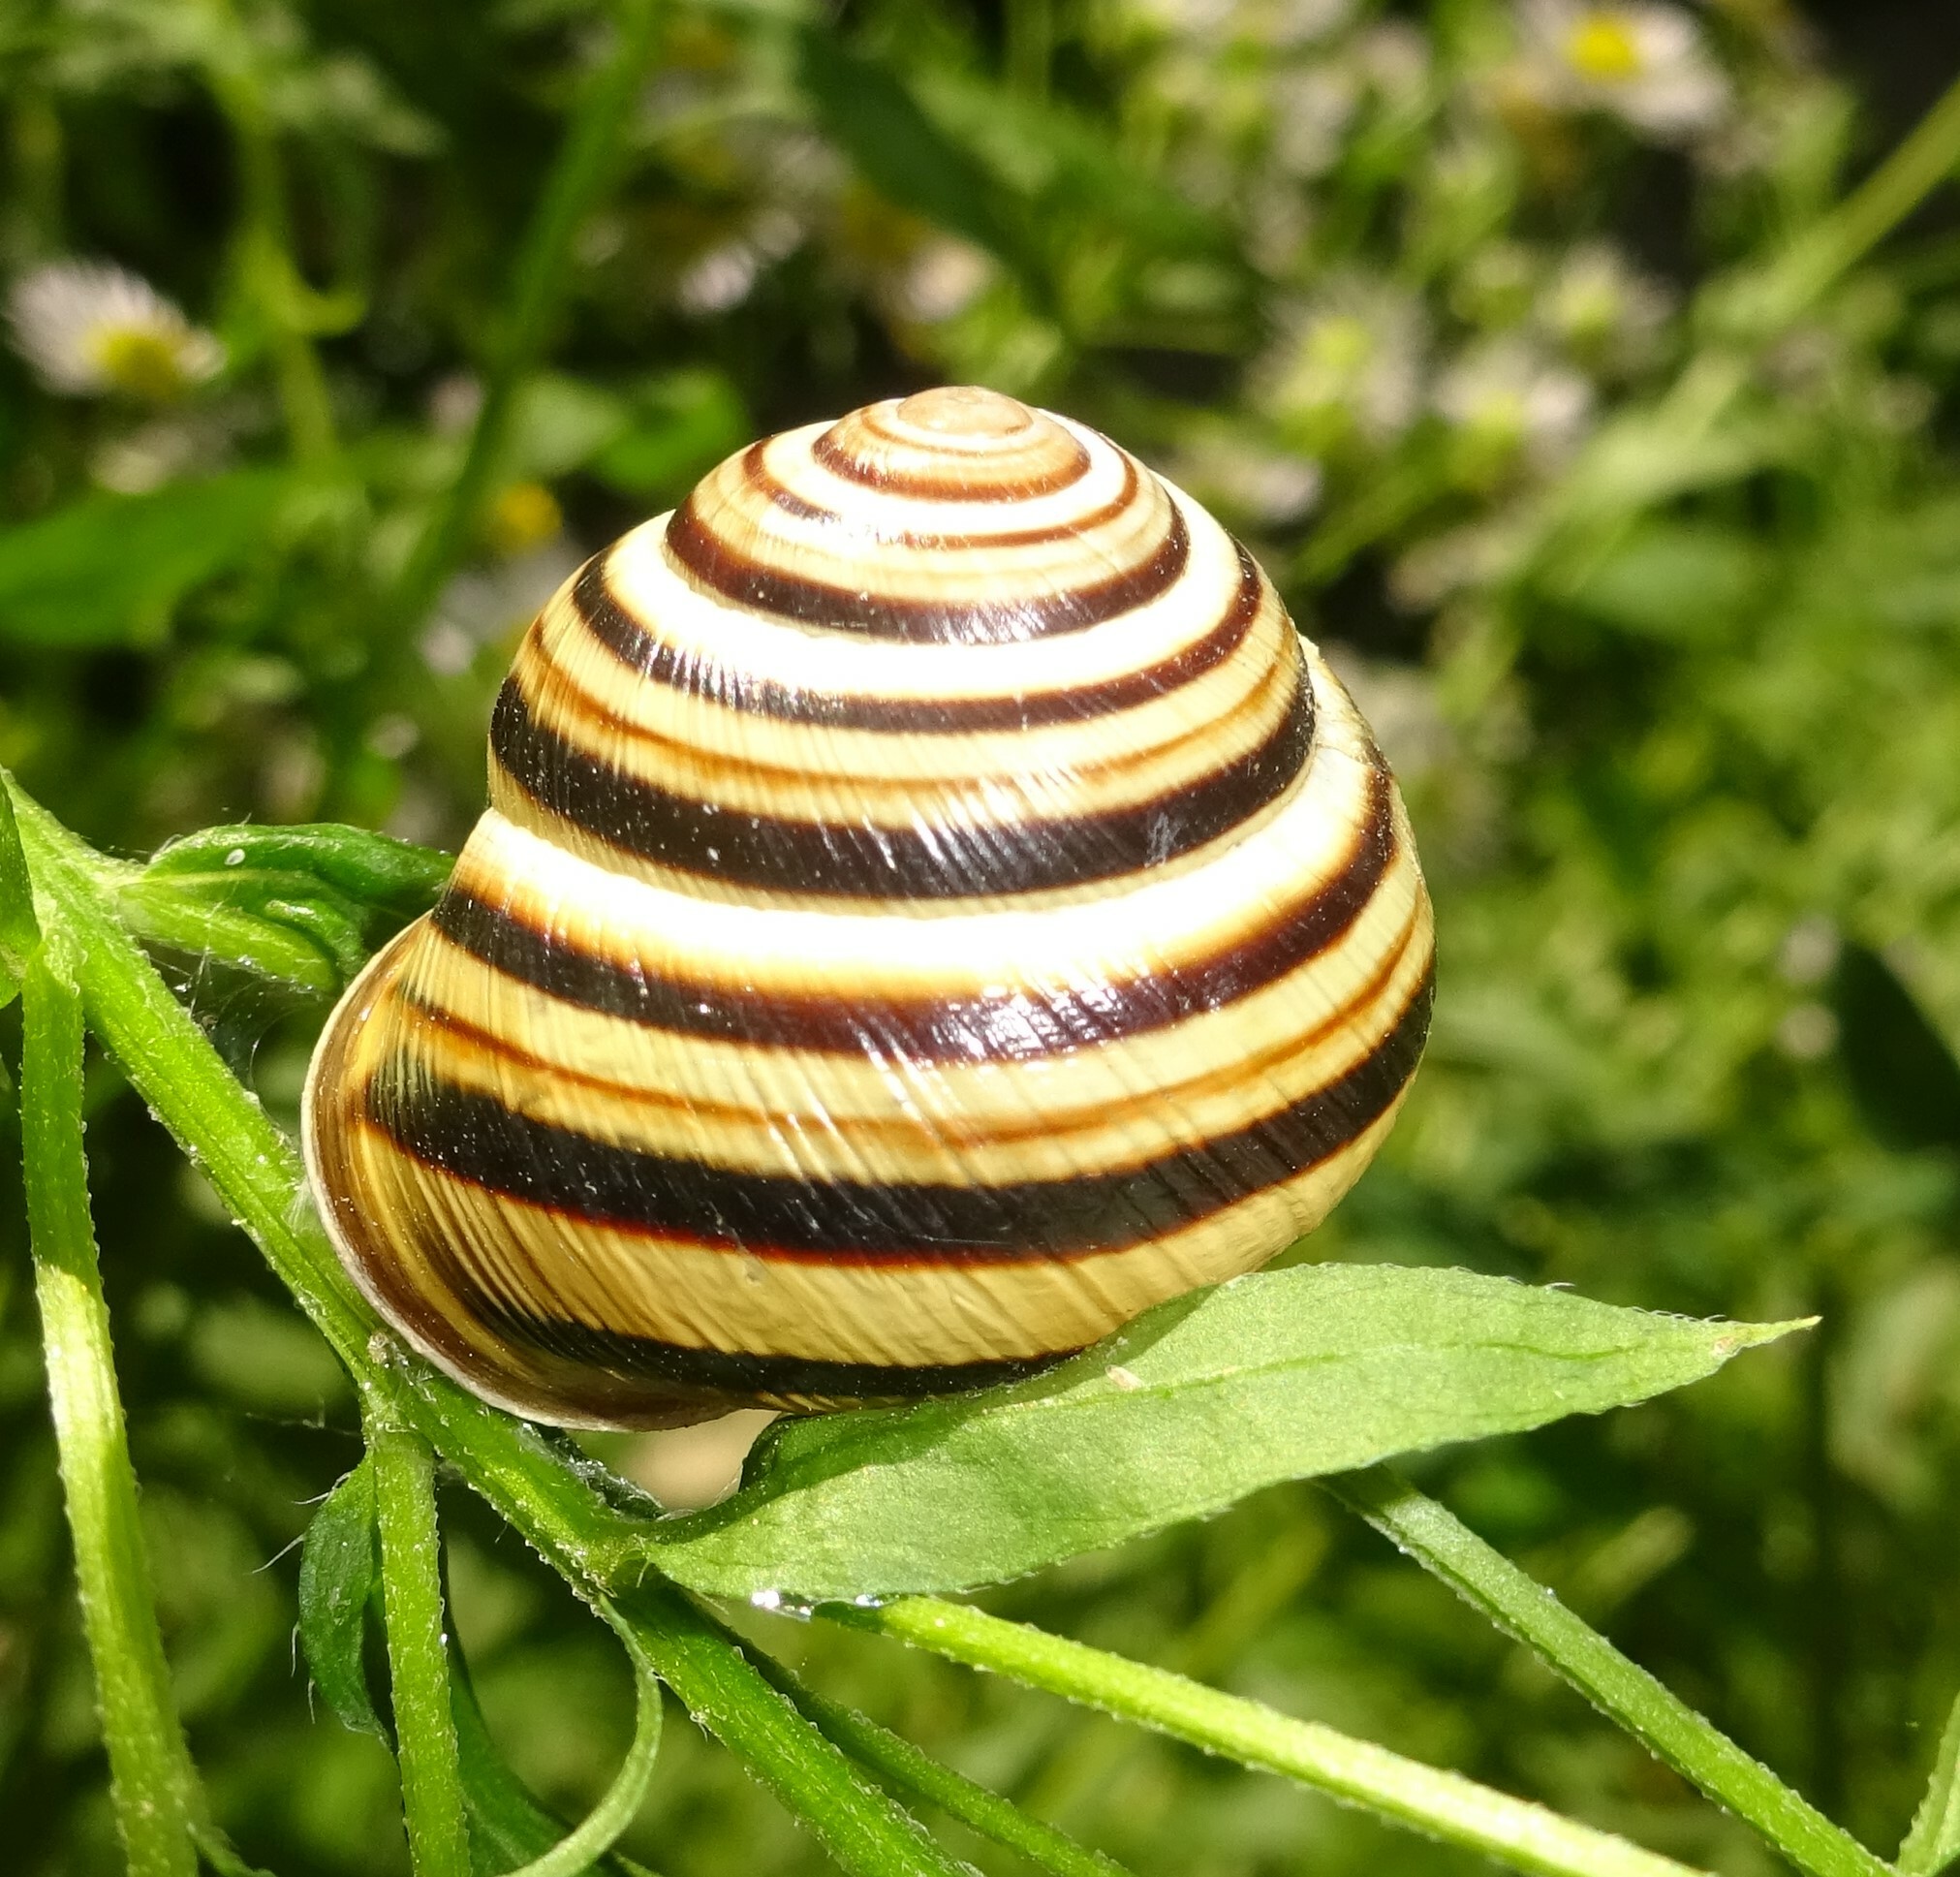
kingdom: Animalia
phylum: Mollusca
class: Gastropoda
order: Stylommatophora
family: Helicidae
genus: Caucasotachea
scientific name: Caucasotachea vindobonensis
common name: European helicid land snail
